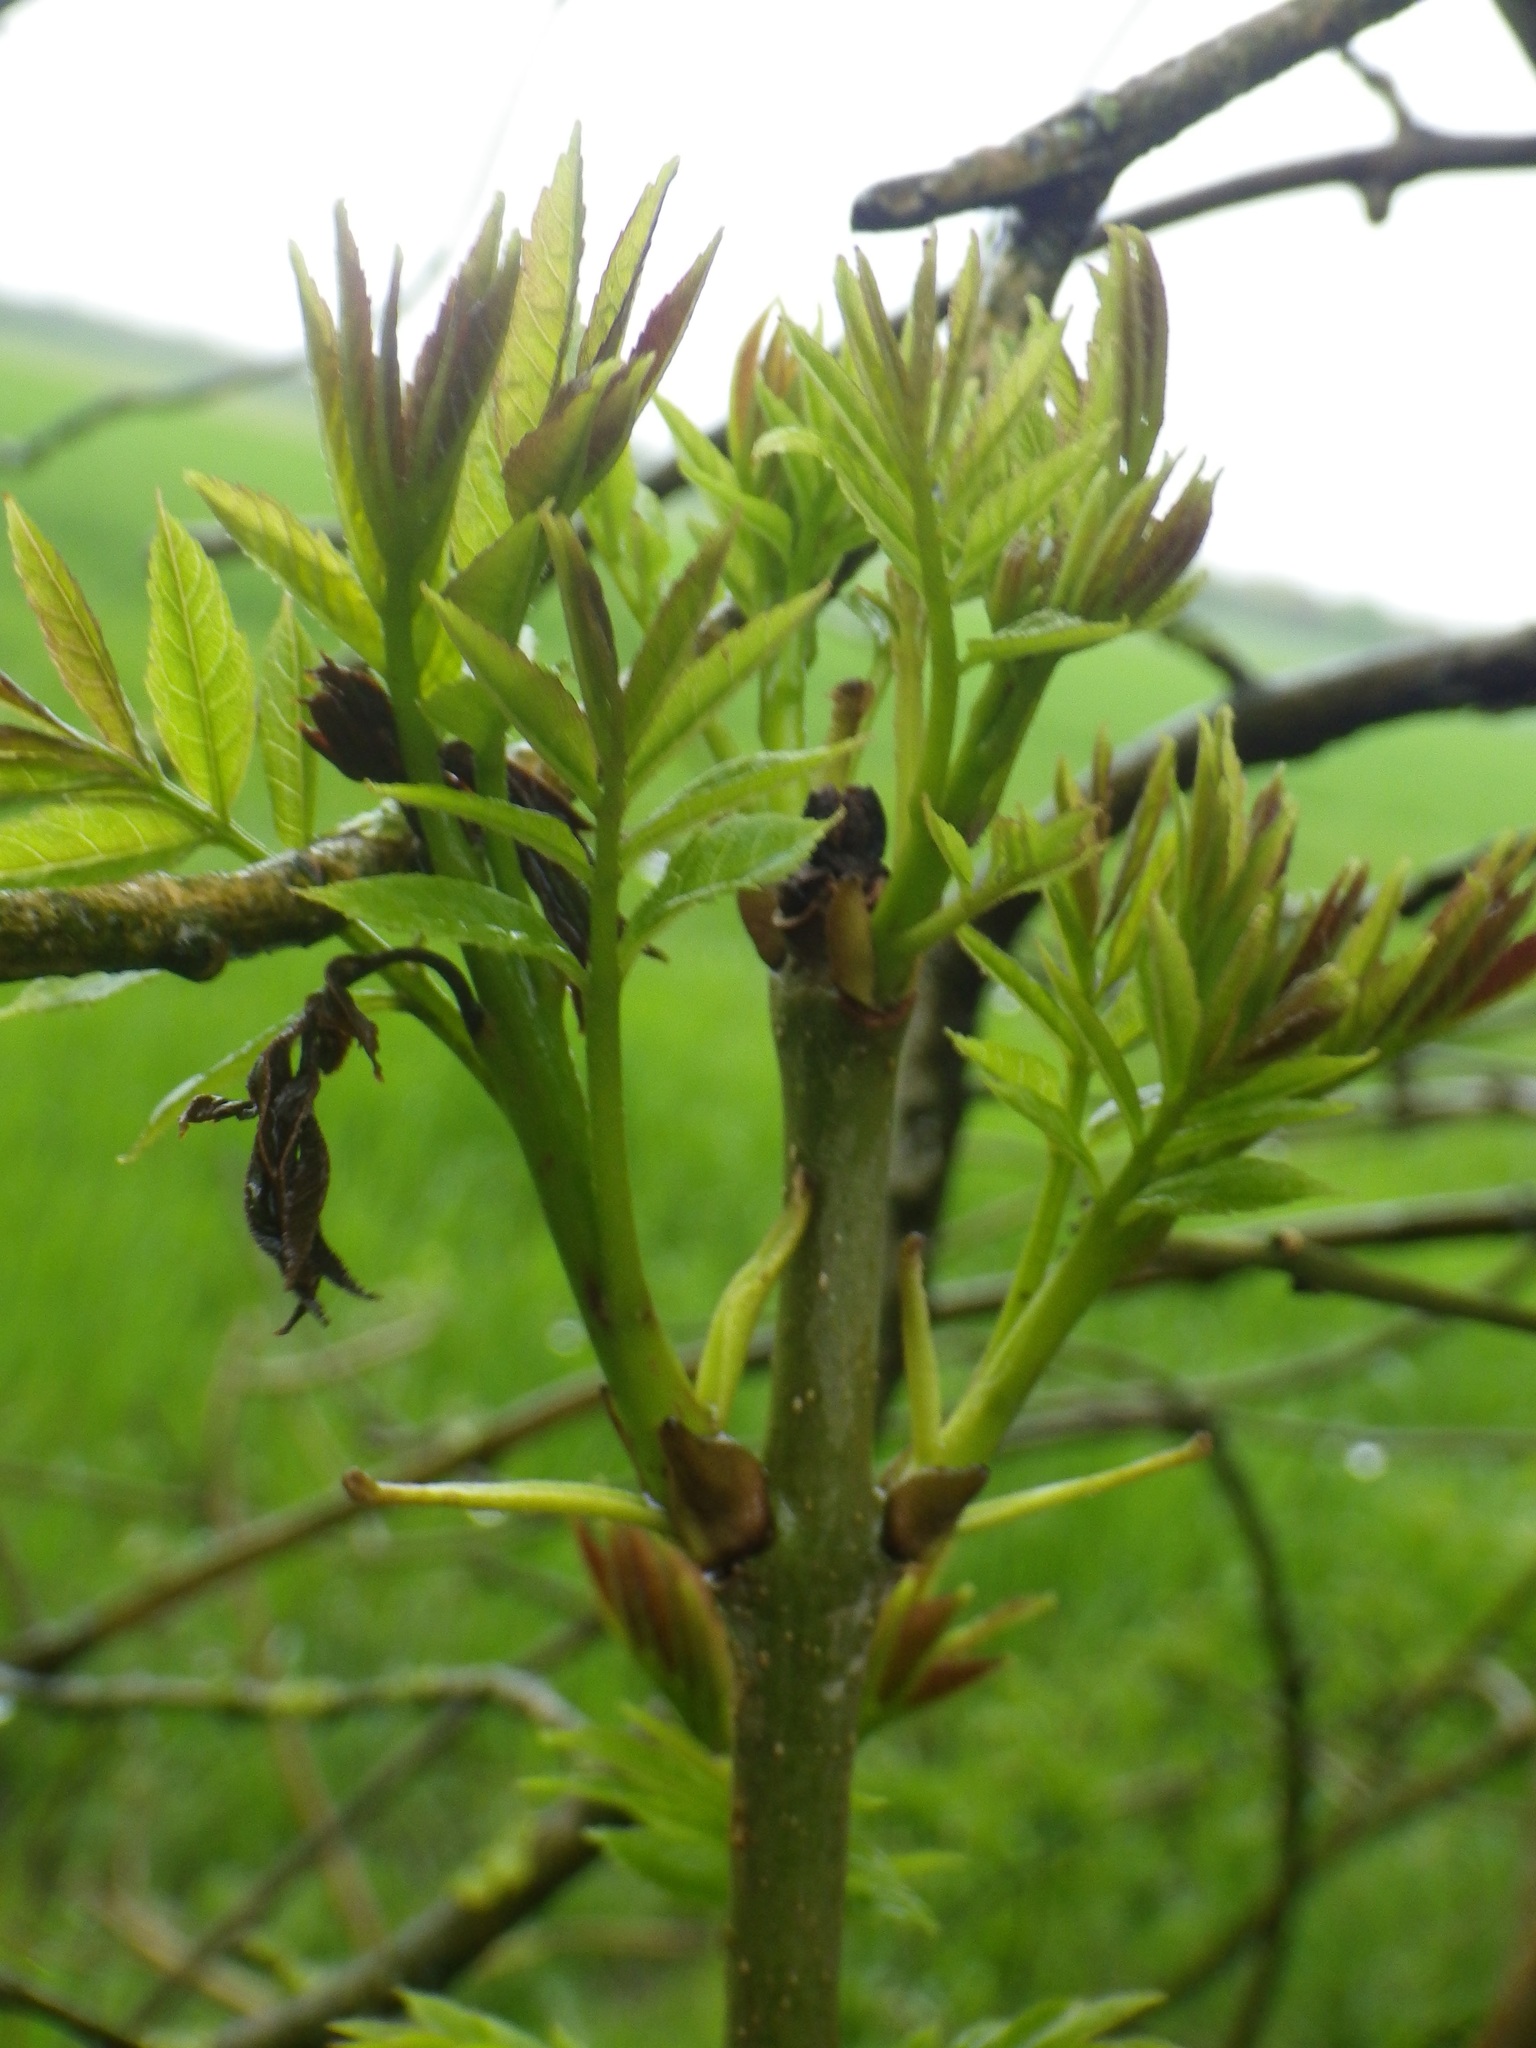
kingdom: Plantae
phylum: Tracheophyta
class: Magnoliopsida
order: Lamiales
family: Oleaceae
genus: Fraxinus
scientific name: Fraxinus excelsior
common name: European ash
